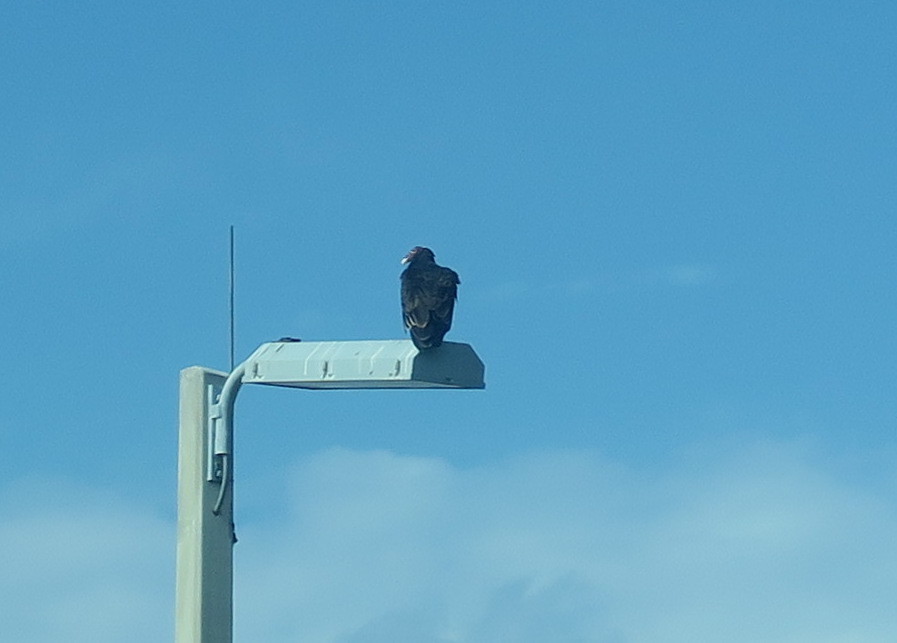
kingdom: Animalia
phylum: Chordata
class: Aves
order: Accipitriformes
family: Cathartidae
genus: Cathartes
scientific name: Cathartes aura
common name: Turkey vulture
